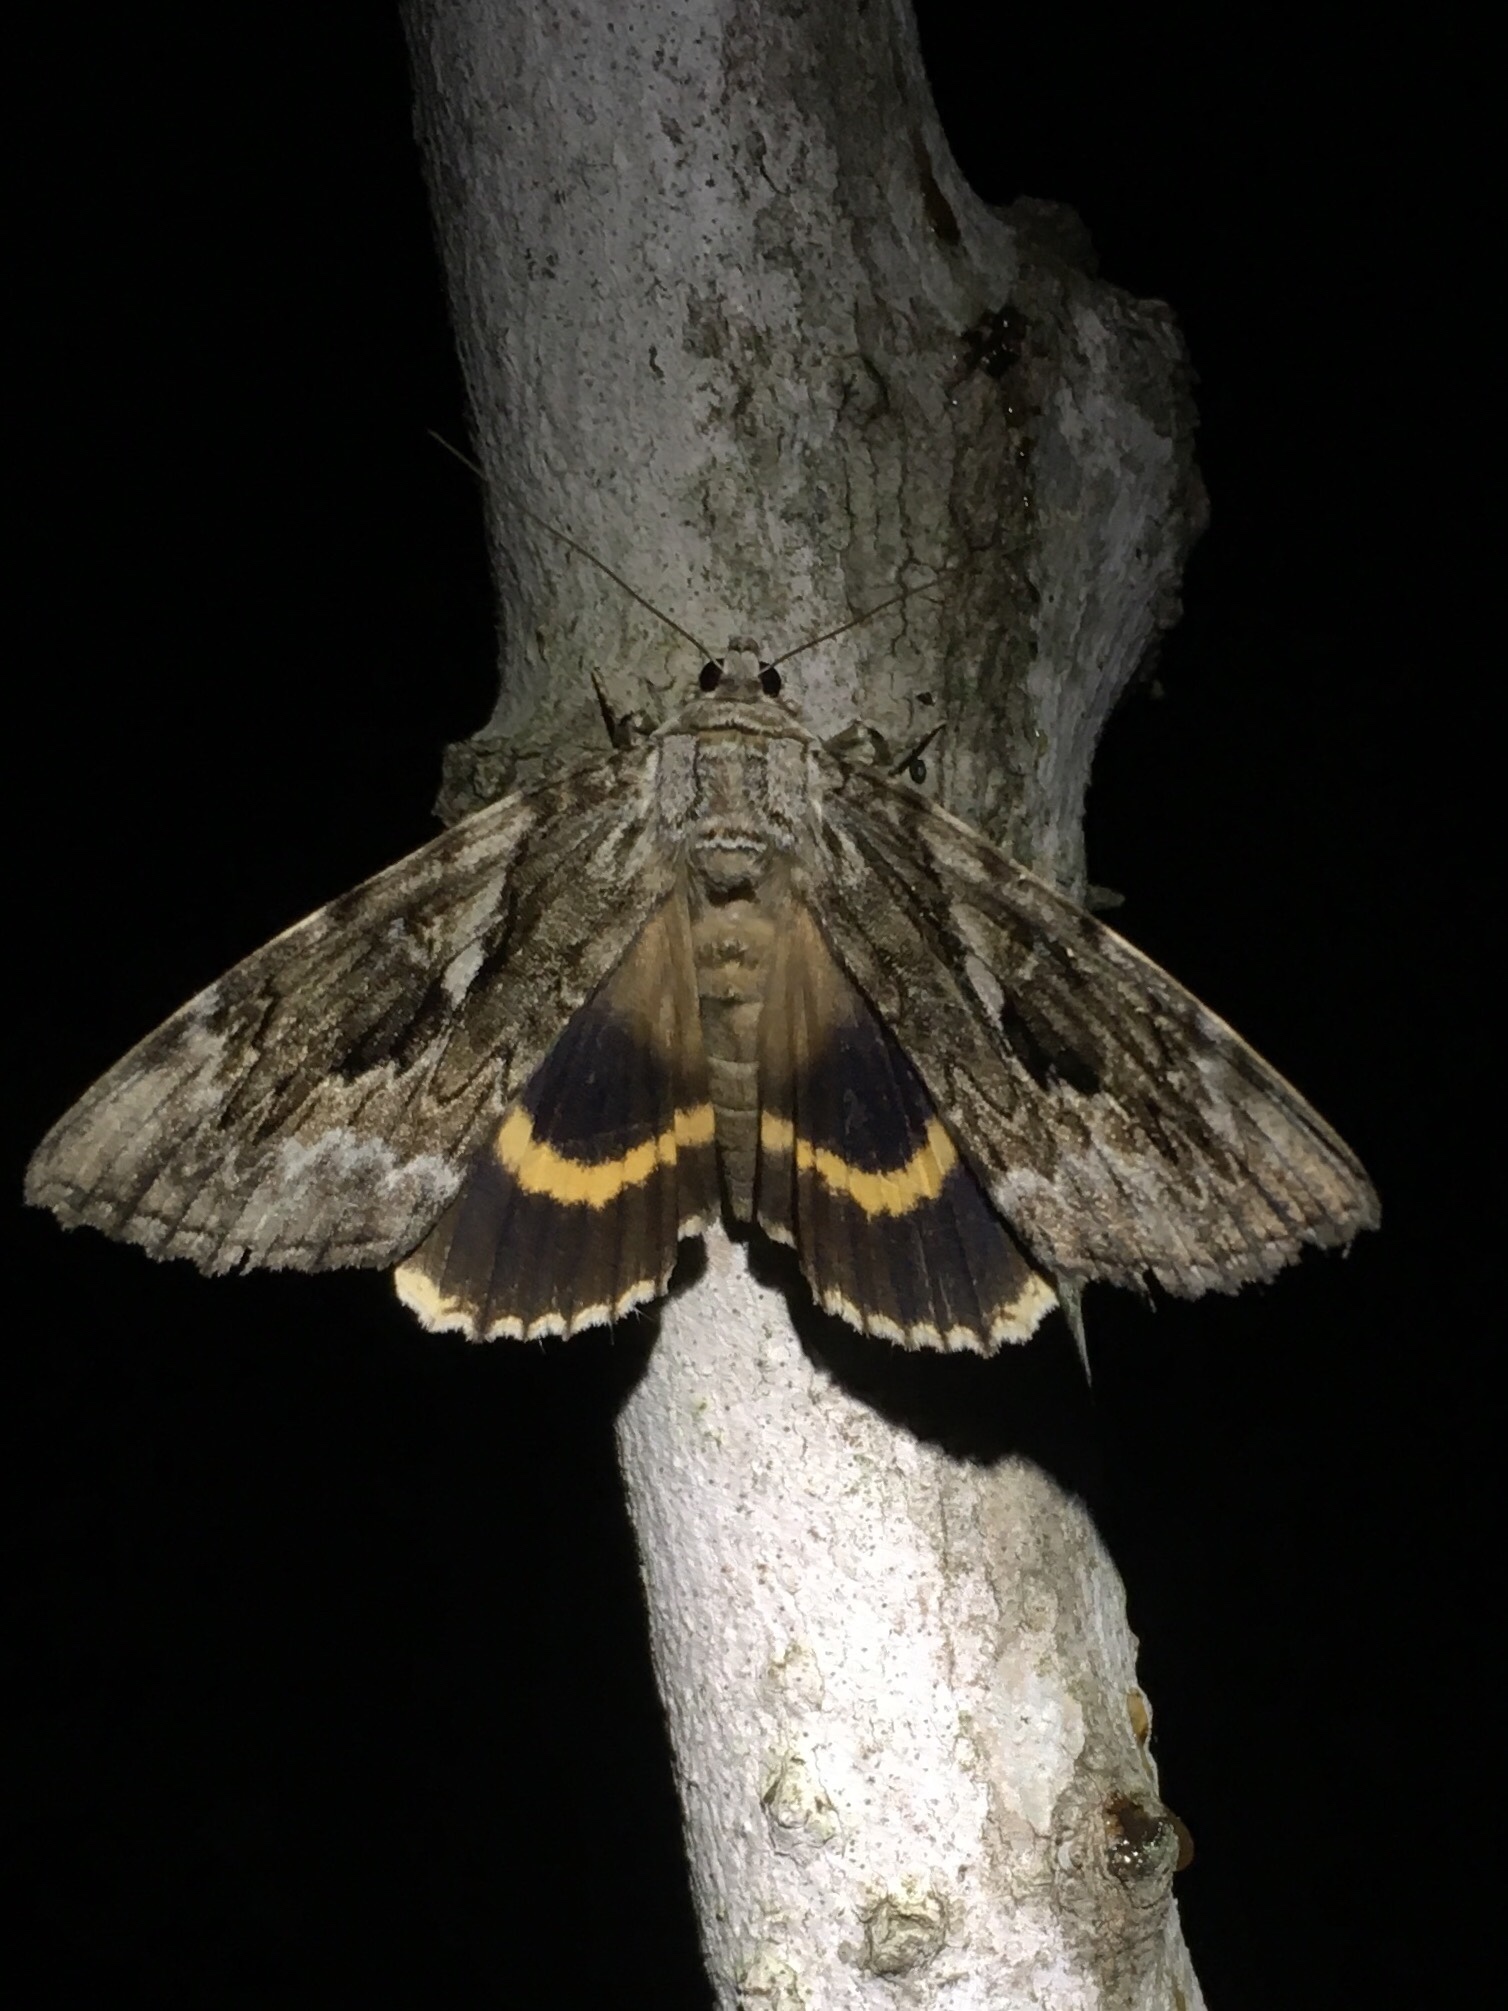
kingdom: Animalia
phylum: Arthropoda
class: Insecta
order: Lepidoptera
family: Erebidae
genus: Catocala
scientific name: Catocala cerogama
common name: Yellow banded underwing
